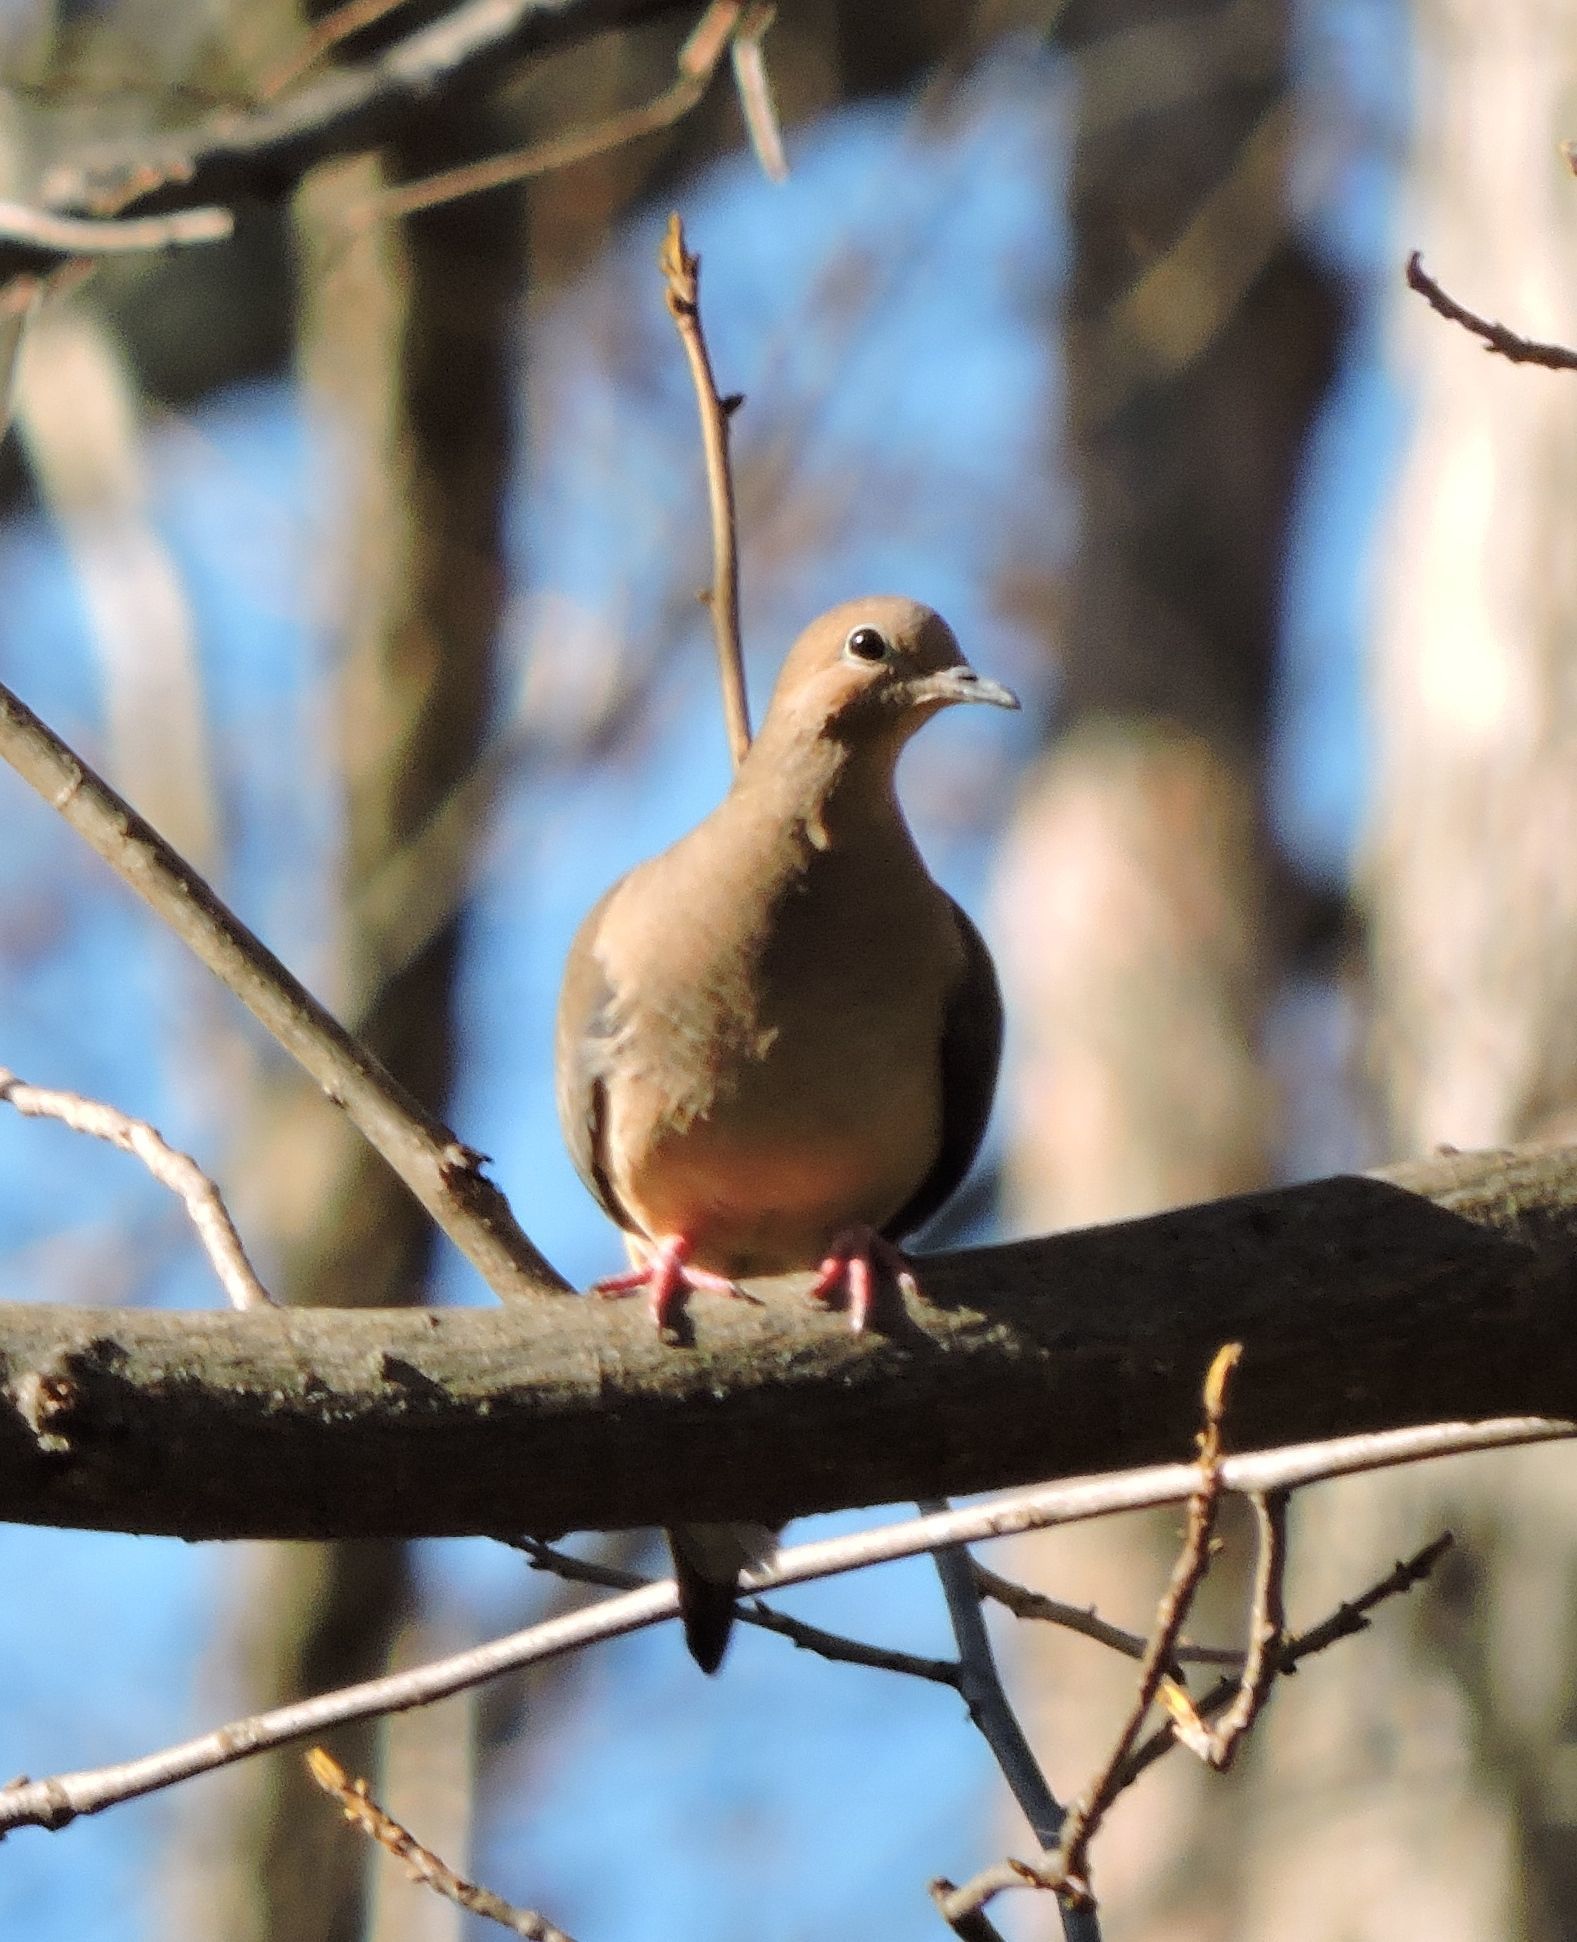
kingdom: Animalia
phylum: Chordata
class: Aves
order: Columbiformes
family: Columbidae
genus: Zenaida
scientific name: Zenaida macroura
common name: Mourning dove
